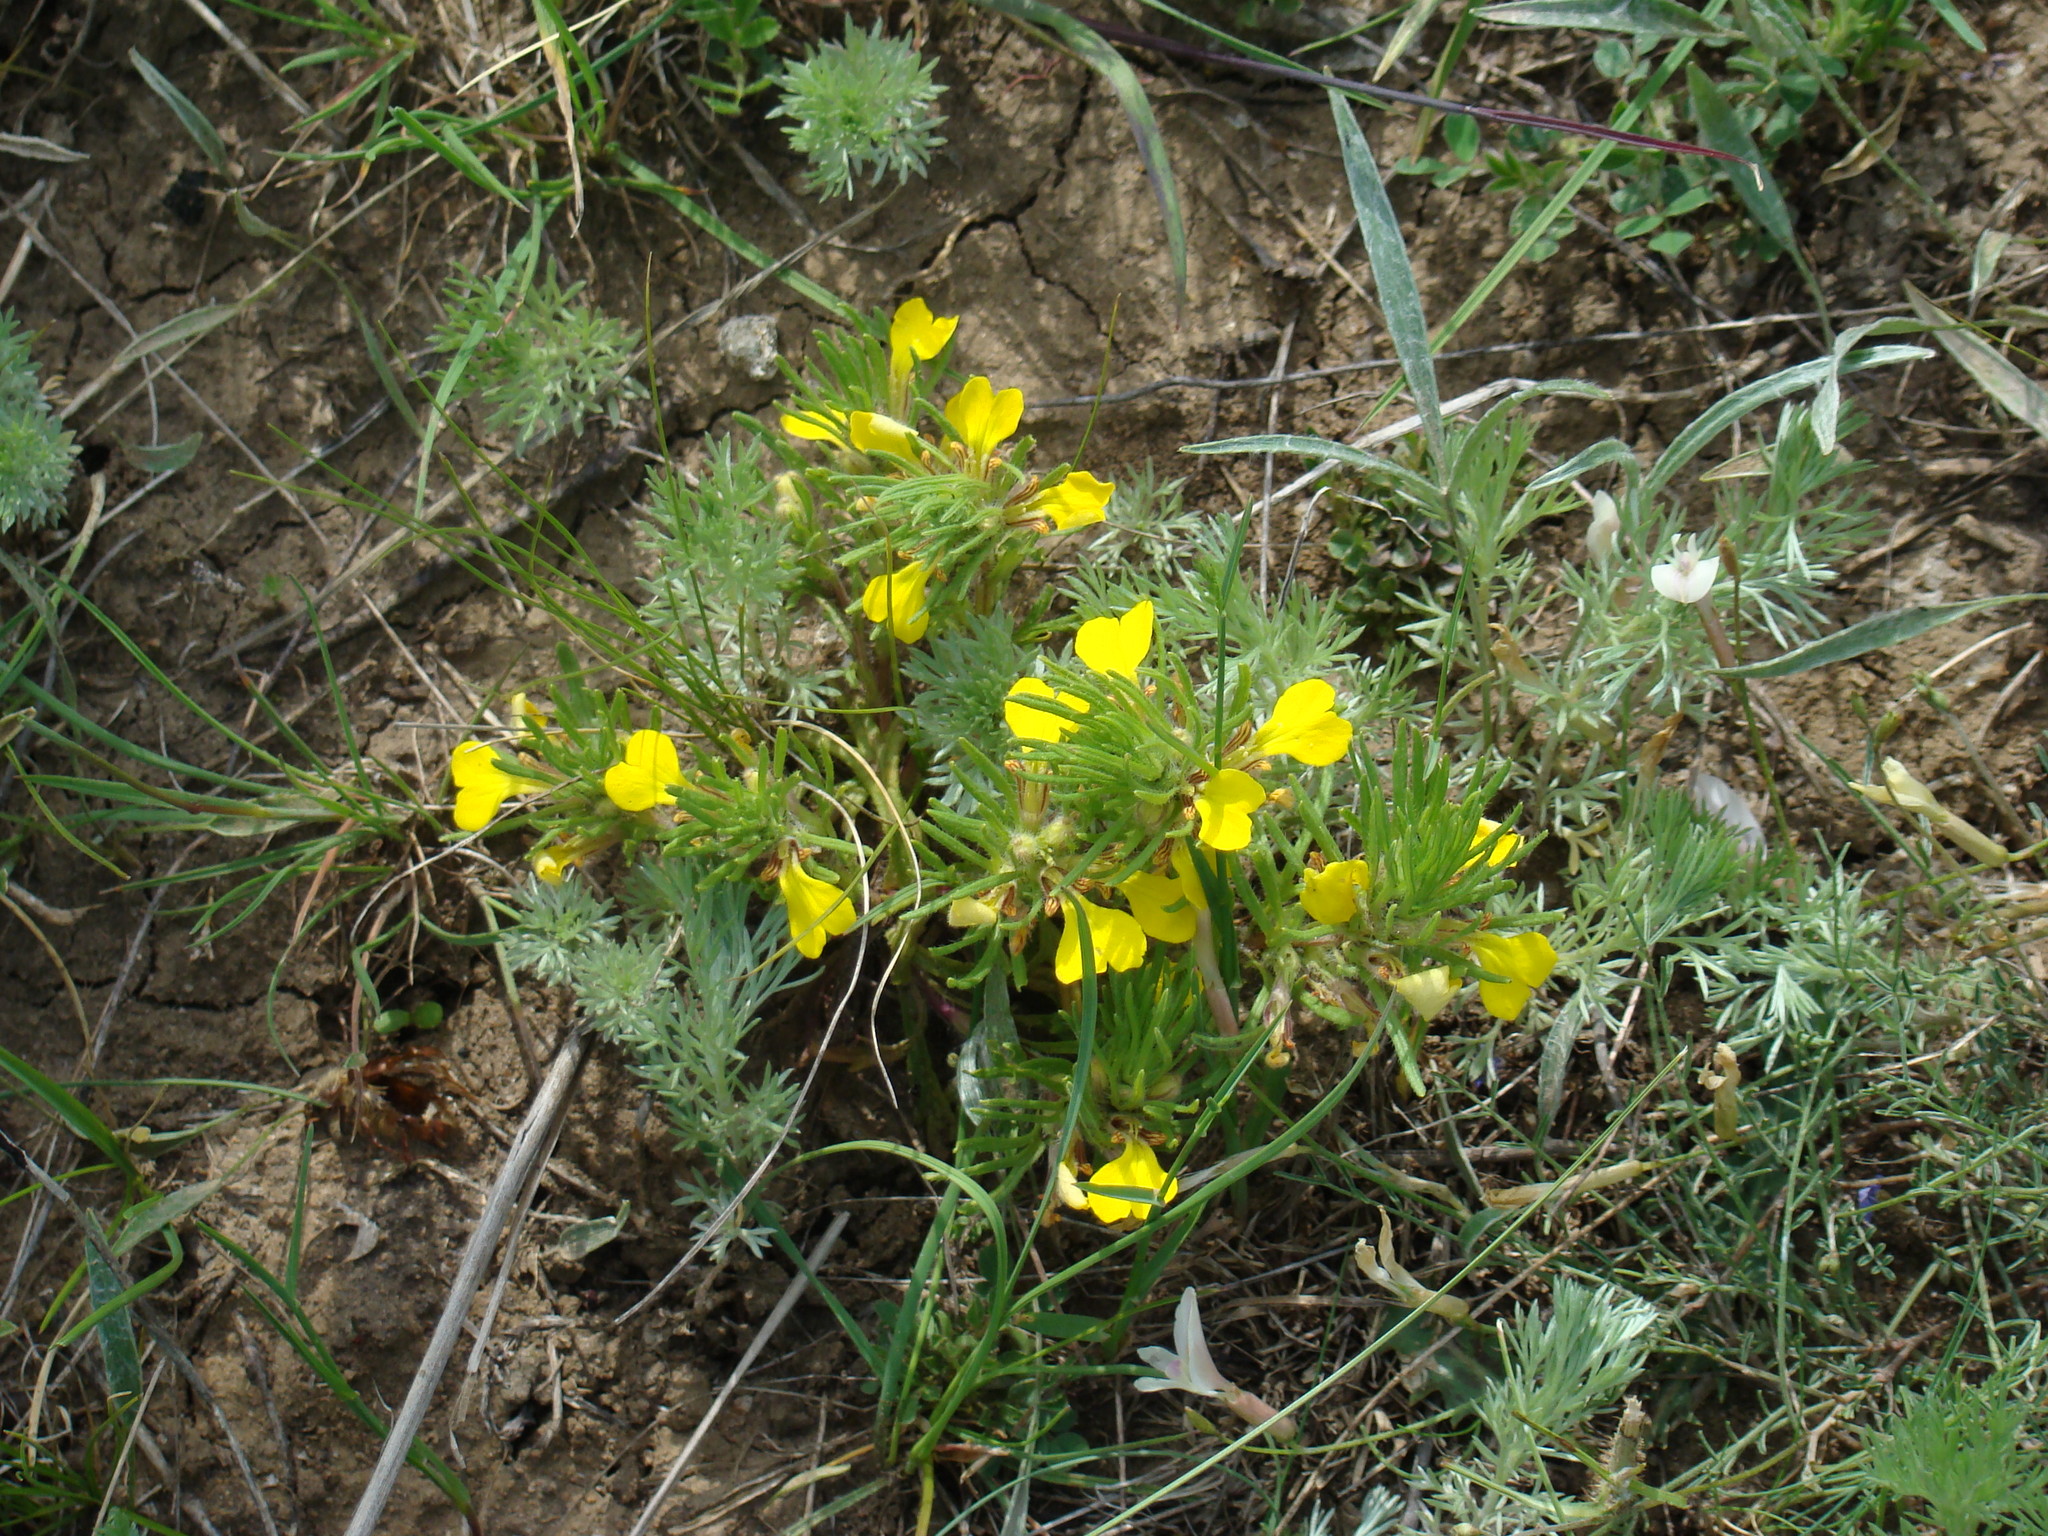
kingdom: Plantae
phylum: Tracheophyta
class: Magnoliopsida
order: Lamiales
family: Lamiaceae
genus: Ajuga
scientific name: Ajuga chamaepitys
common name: Ground-pine
